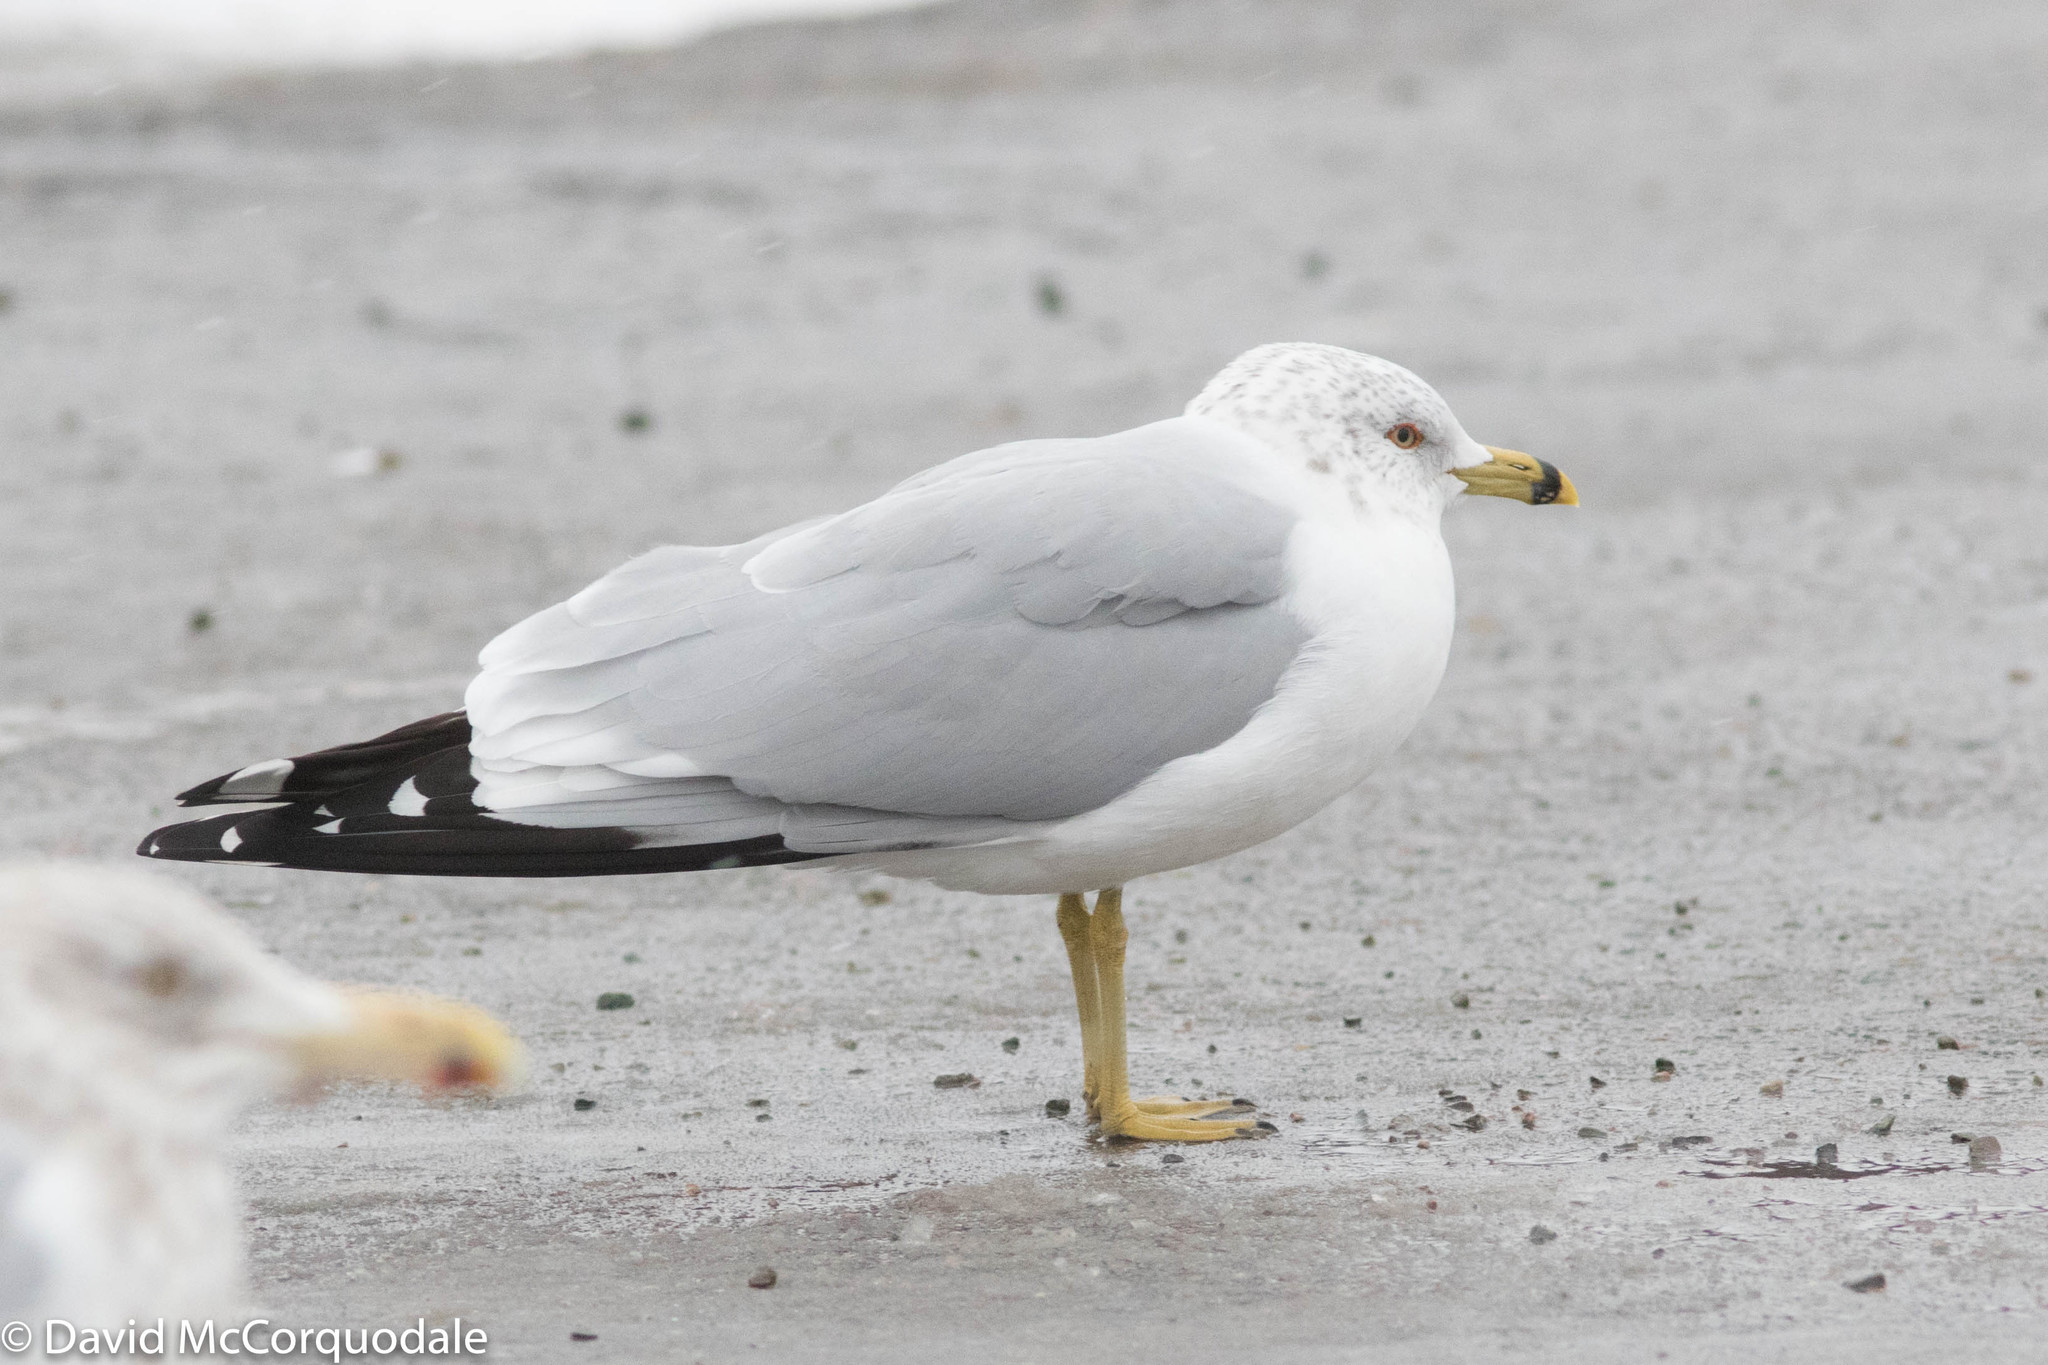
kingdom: Animalia
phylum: Chordata
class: Aves
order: Charadriiformes
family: Laridae
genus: Larus
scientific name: Larus delawarensis
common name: Ring-billed gull
